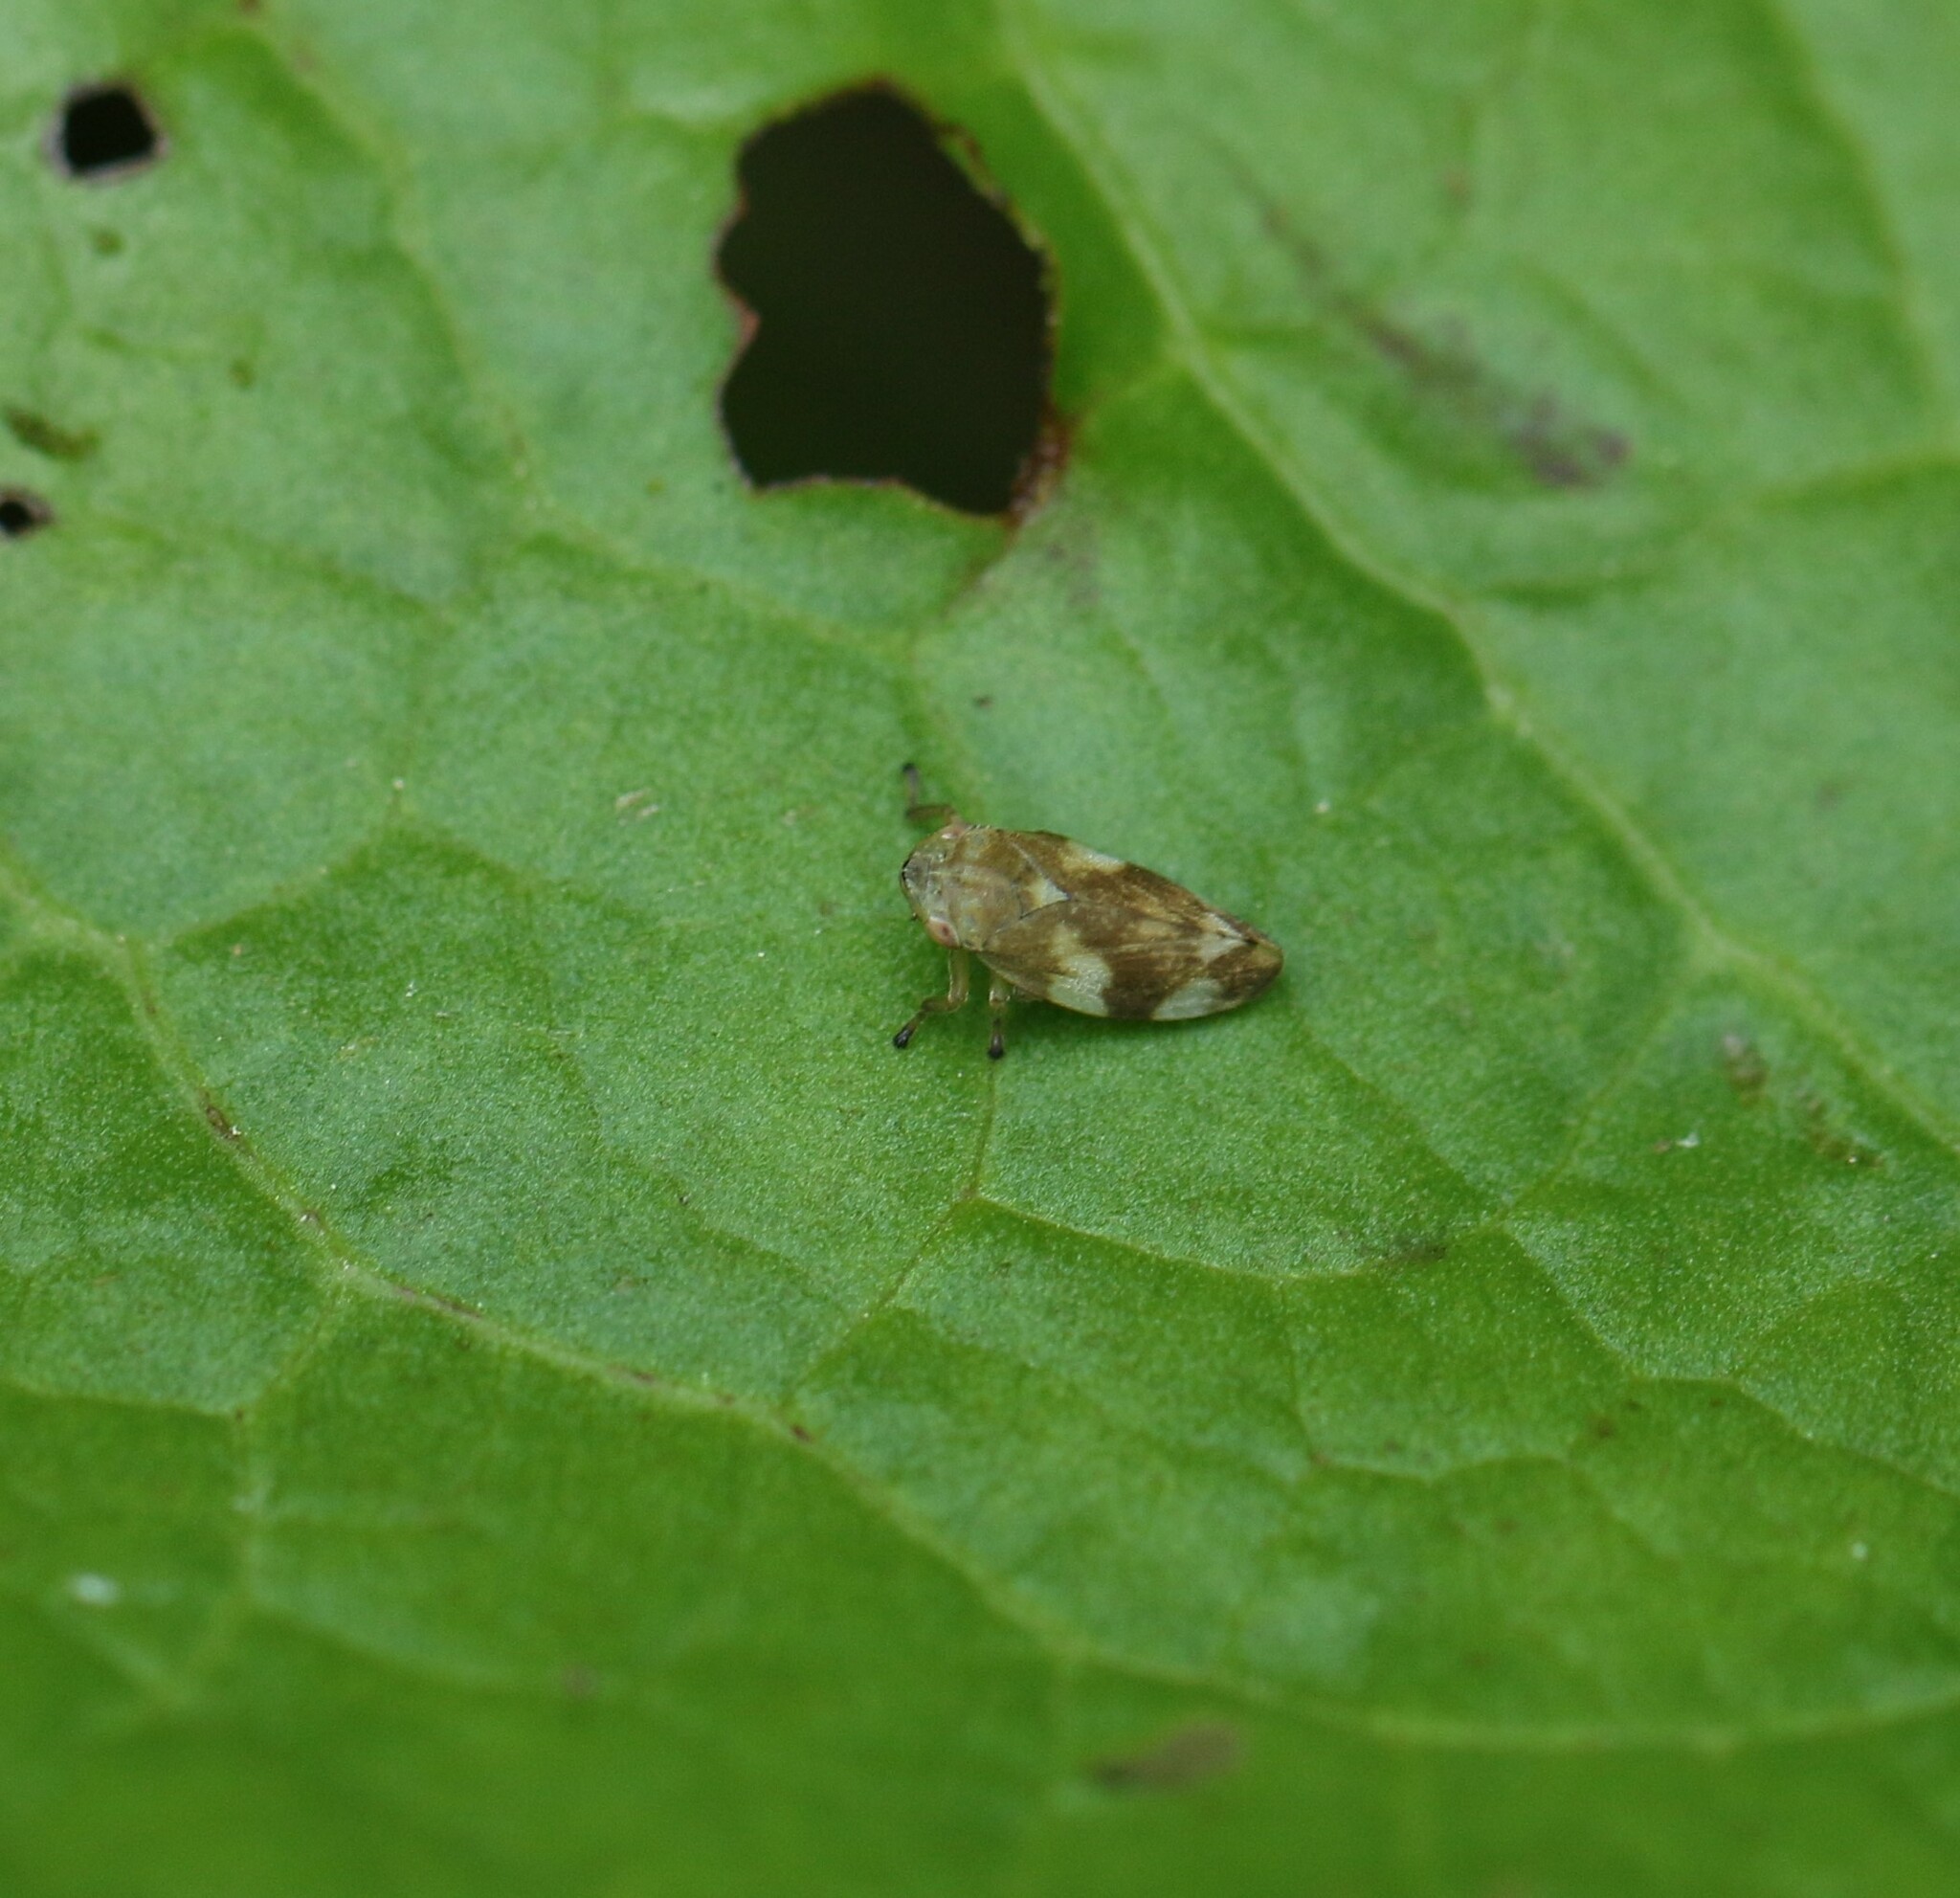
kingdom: Animalia
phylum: Arthropoda
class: Insecta
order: Hemiptera
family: Aphrophoridae
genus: Philaenus
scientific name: Philaenus spumarius
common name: Meadow spittlebug
